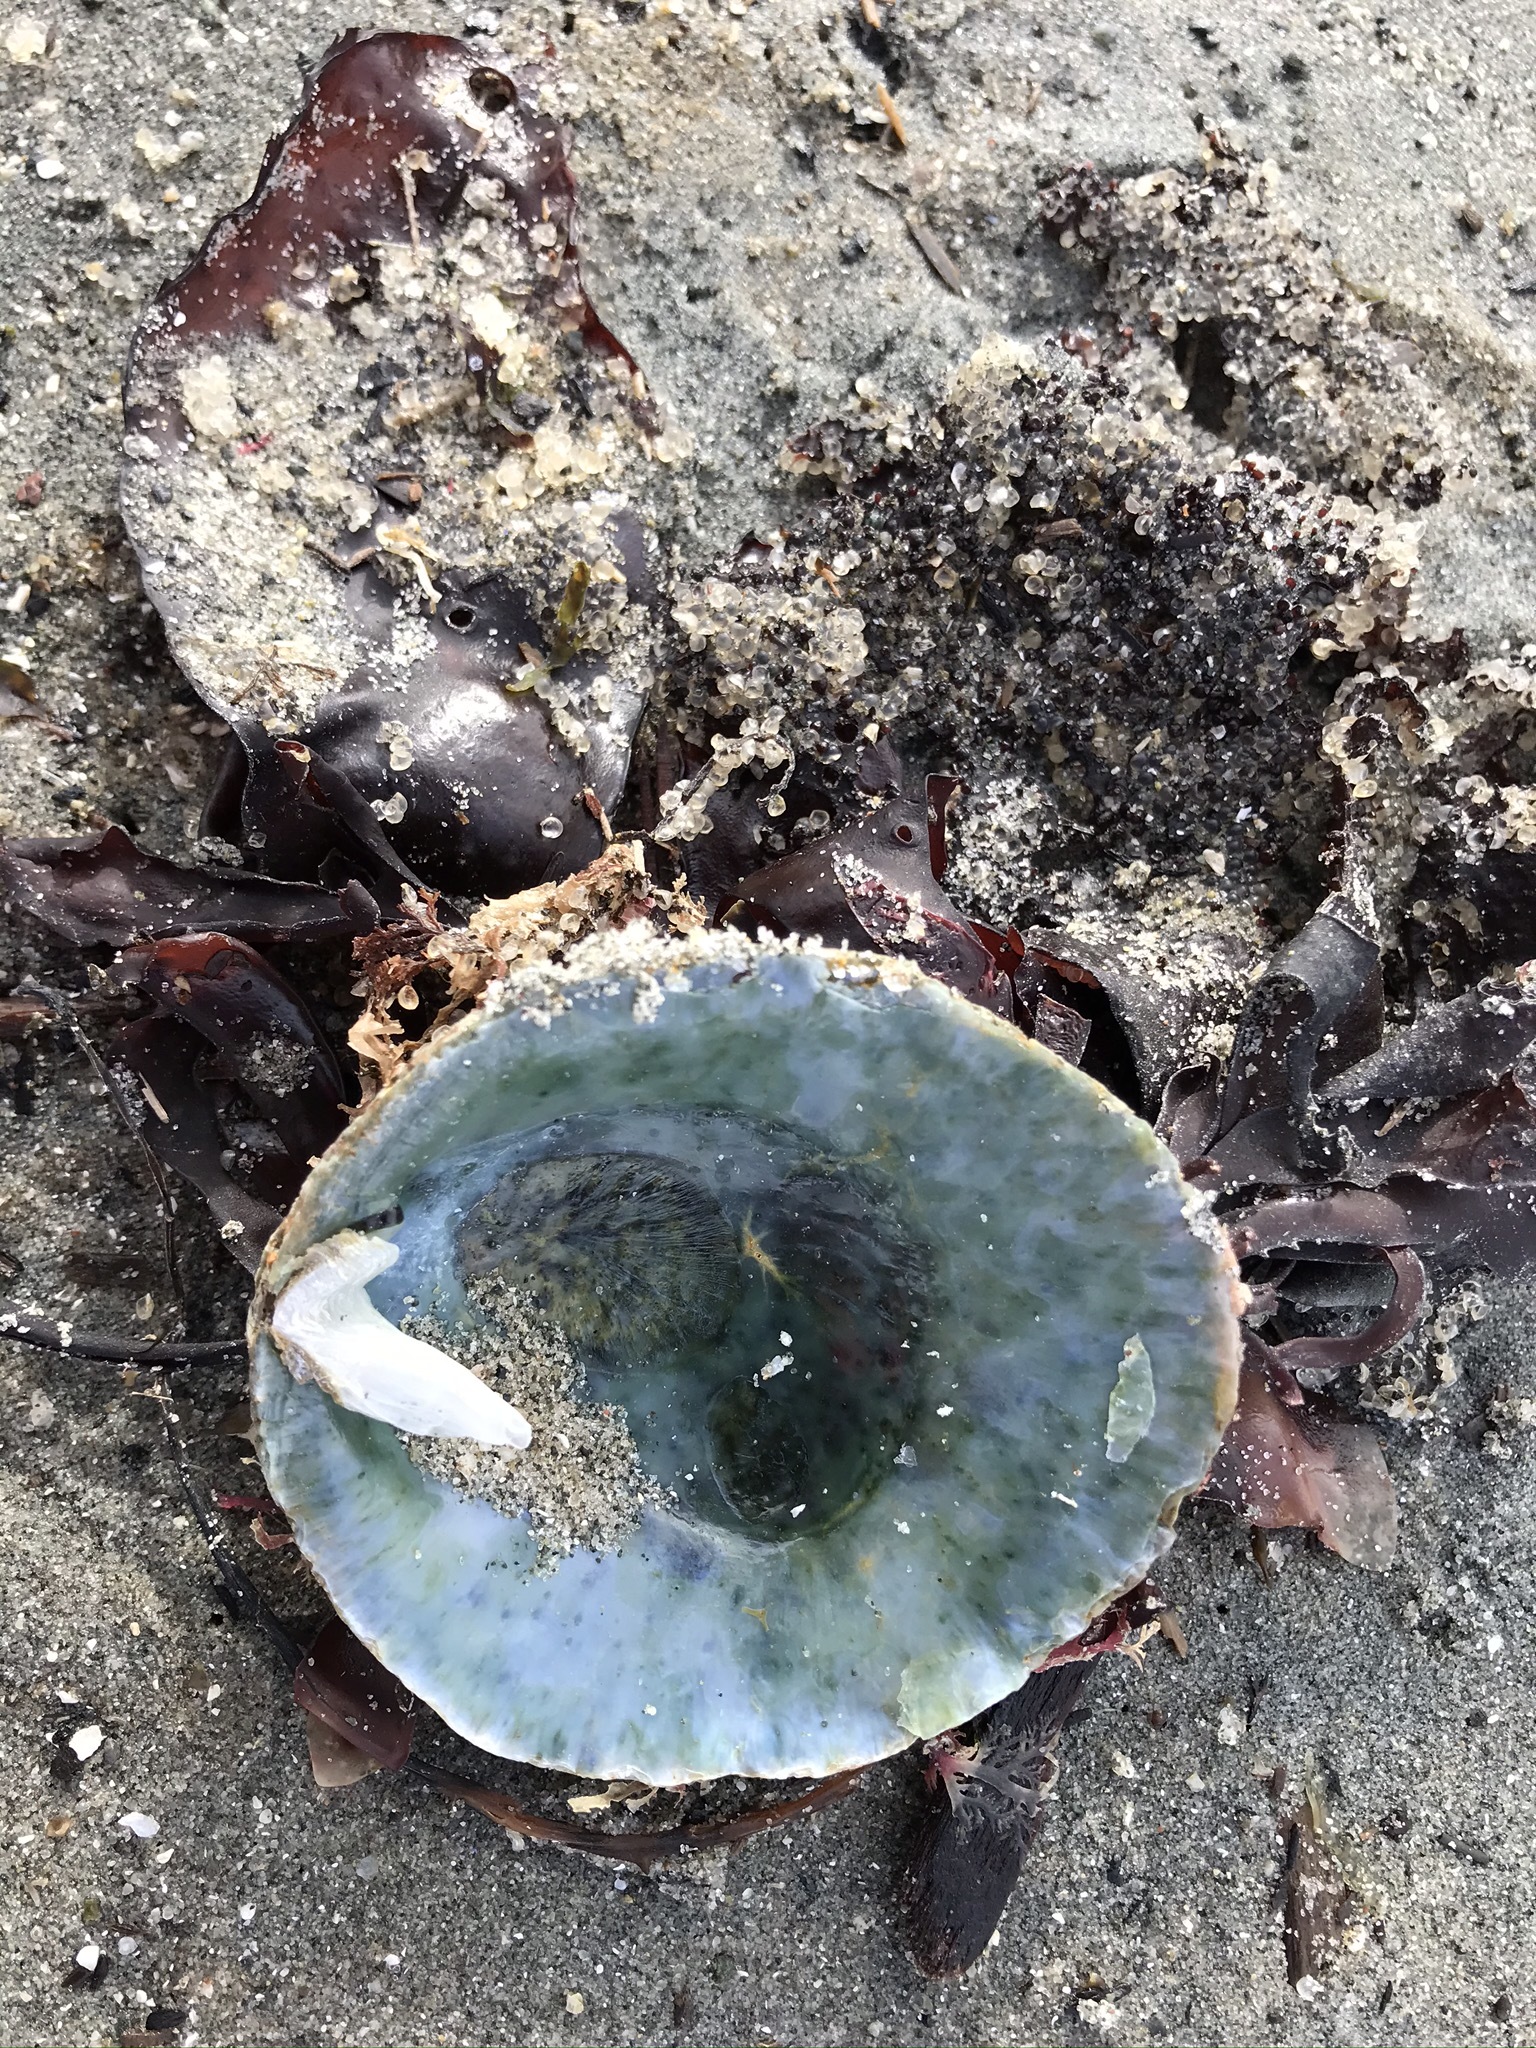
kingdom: Animalia
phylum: Mollusca
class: Bivalvia
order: Pectinida
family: Anomiidae
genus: Pododesmus
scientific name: Pododesmus macrochisma
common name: Alaska jingle
